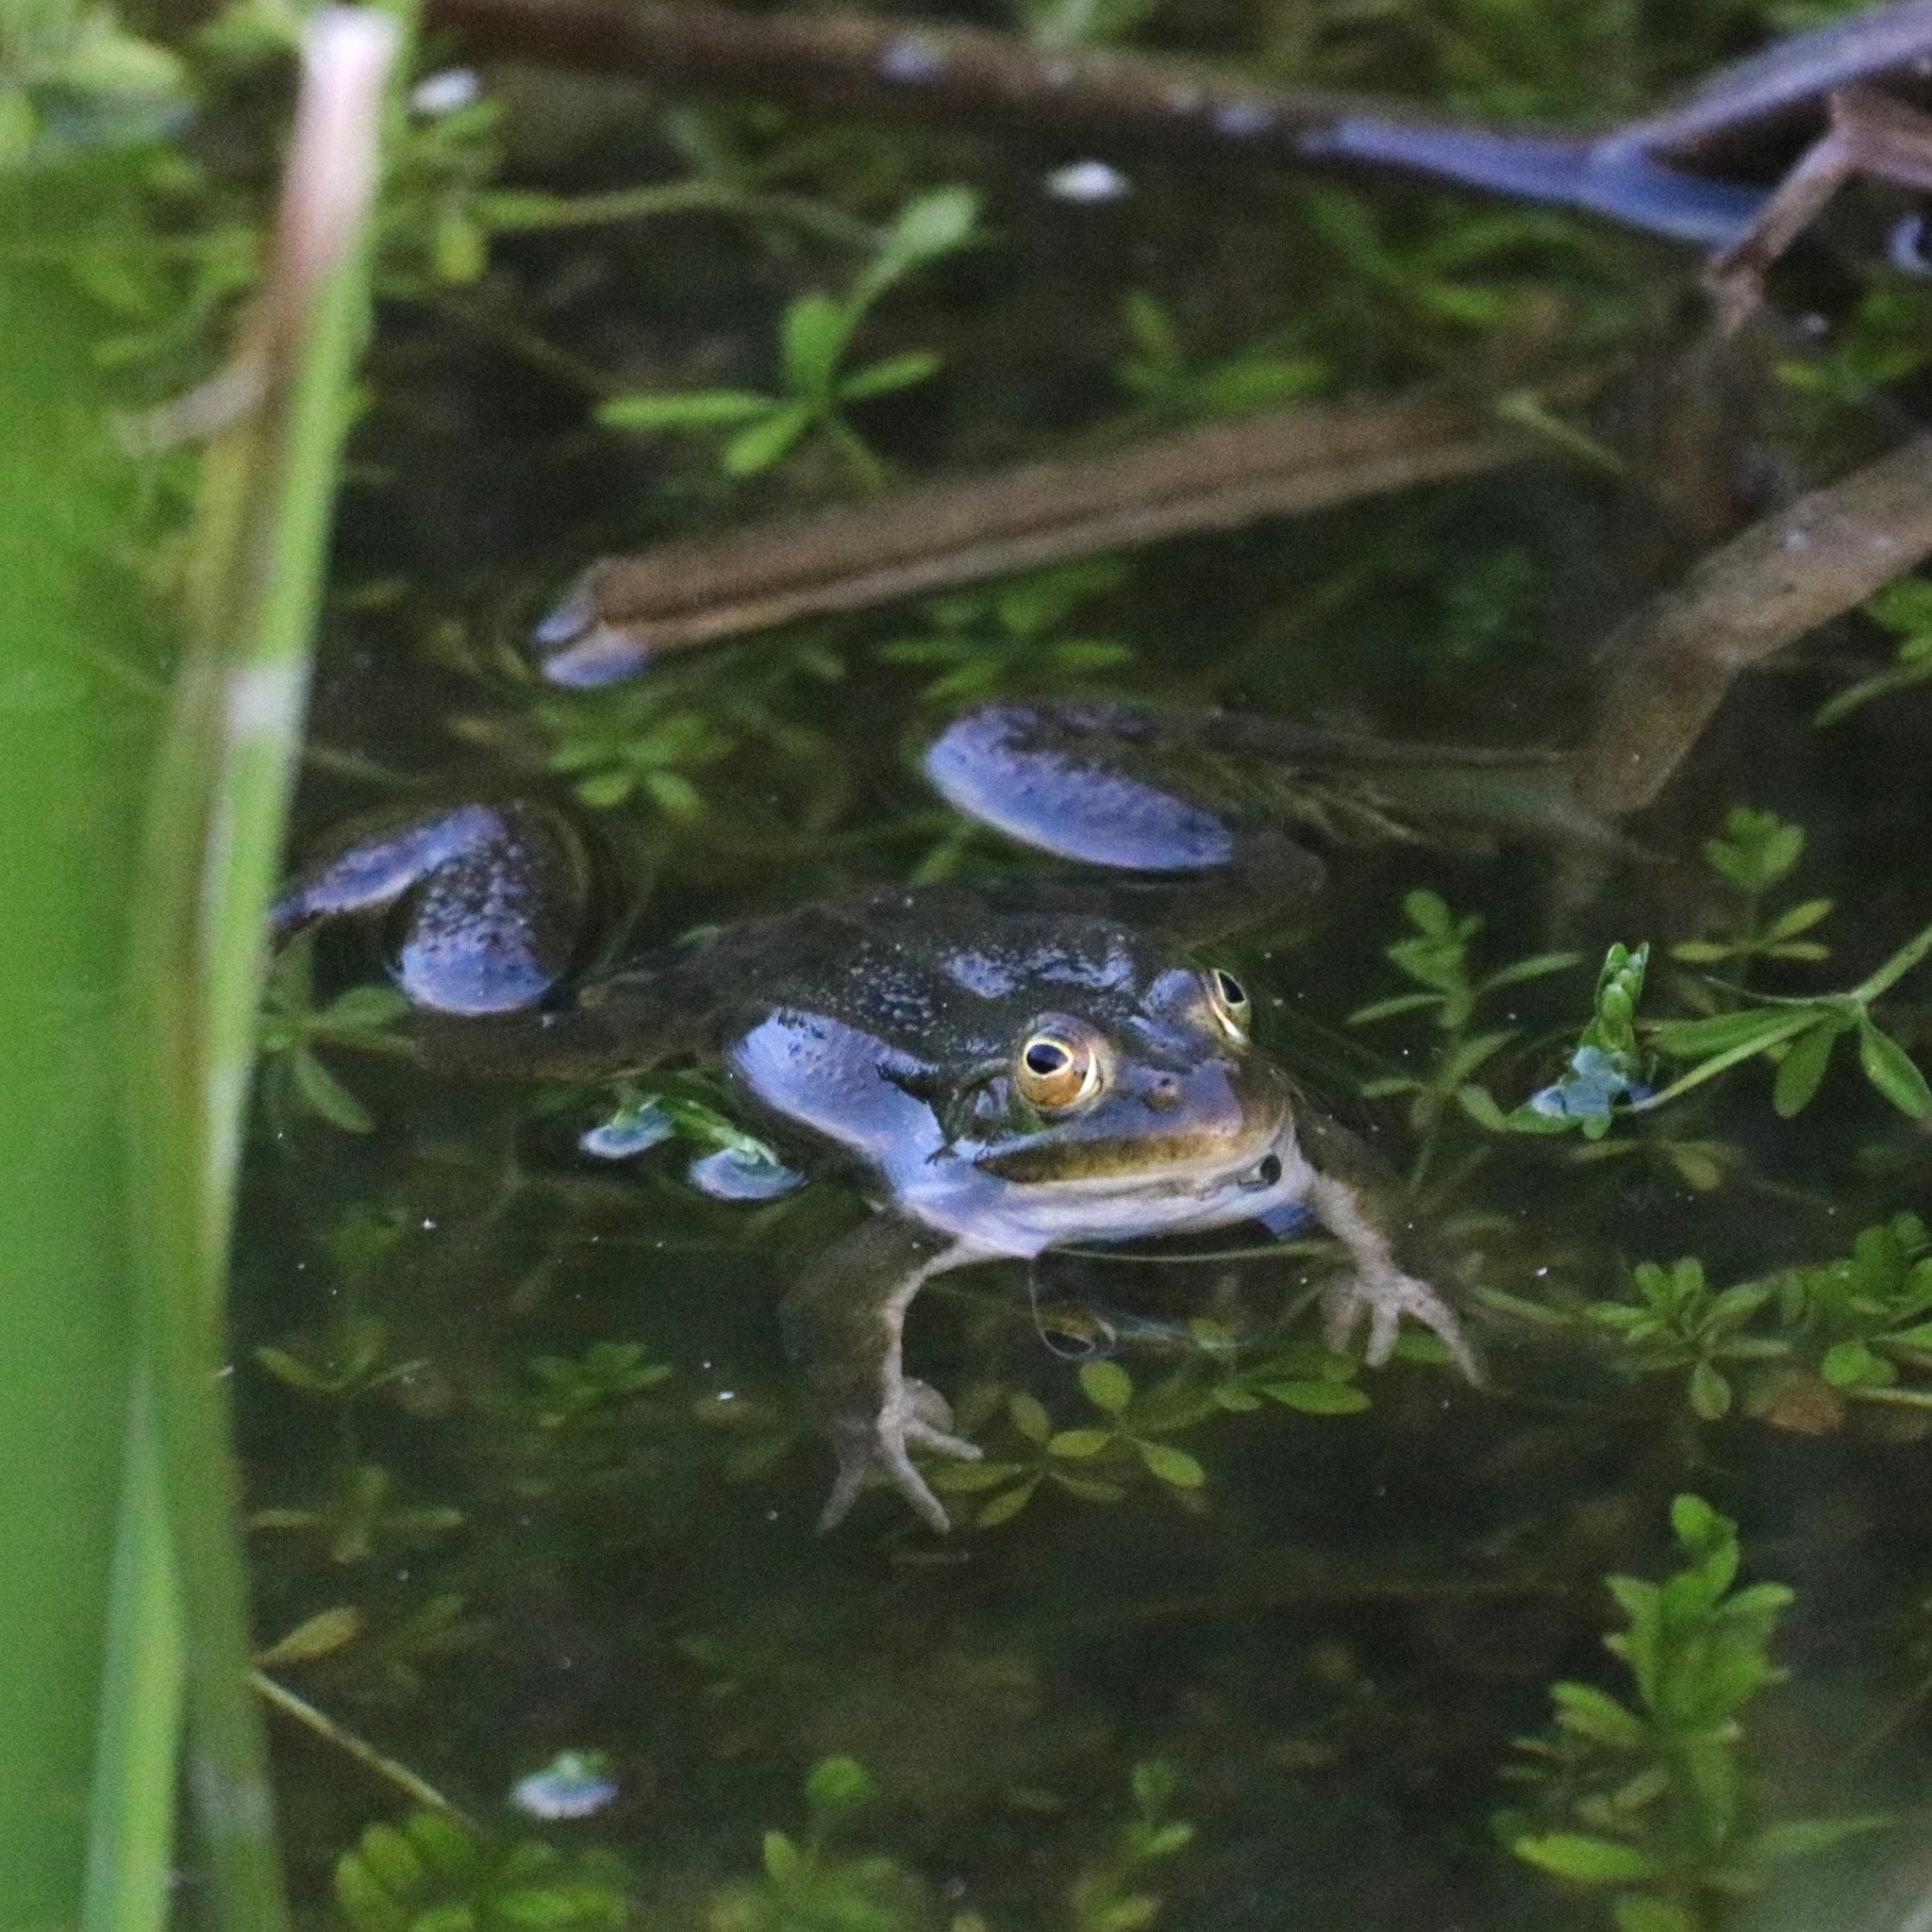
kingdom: Animalia
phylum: Chordata
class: Amphibia
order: Anura
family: Ranidae
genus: Pelophylax
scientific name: Pelophylax
